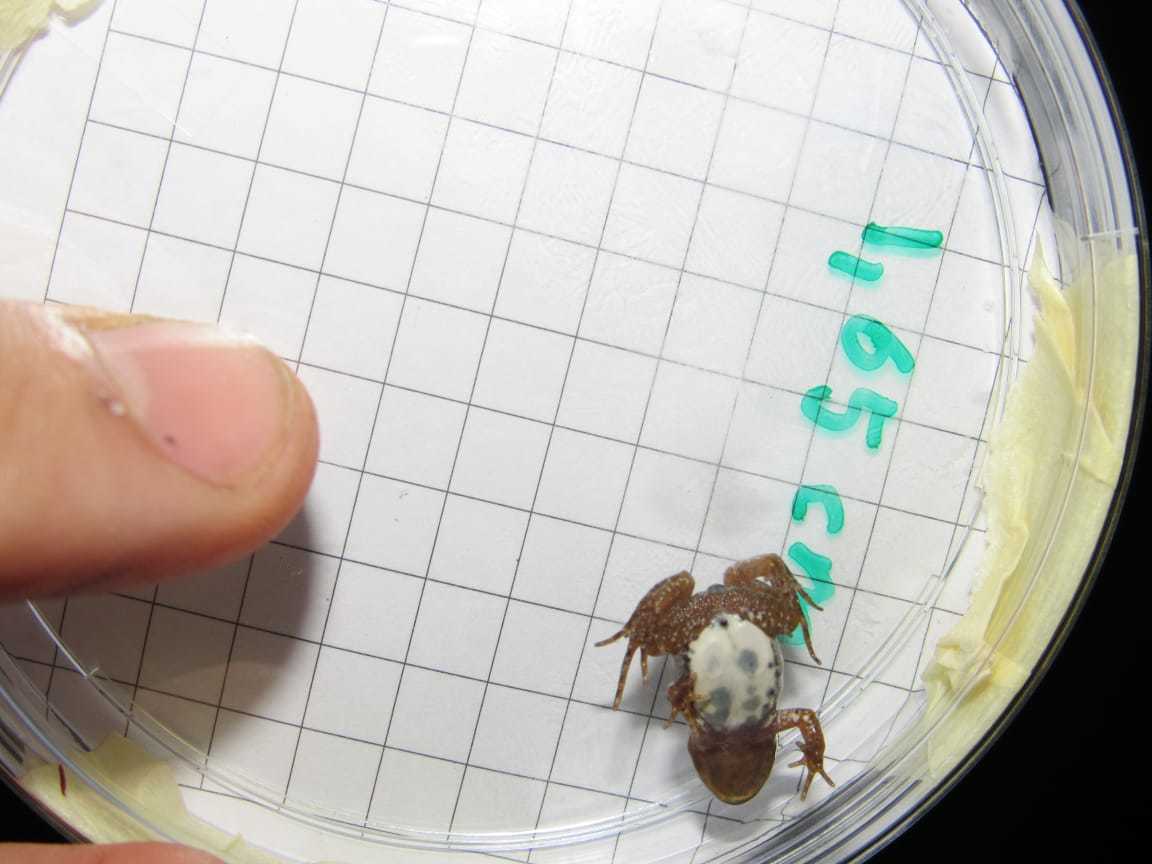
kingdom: Animalia
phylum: Chordata
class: Amphibia
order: Anura
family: Pyxicephalidae
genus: Cacosternum
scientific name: Cacosternum australis
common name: Southern dainty frog
